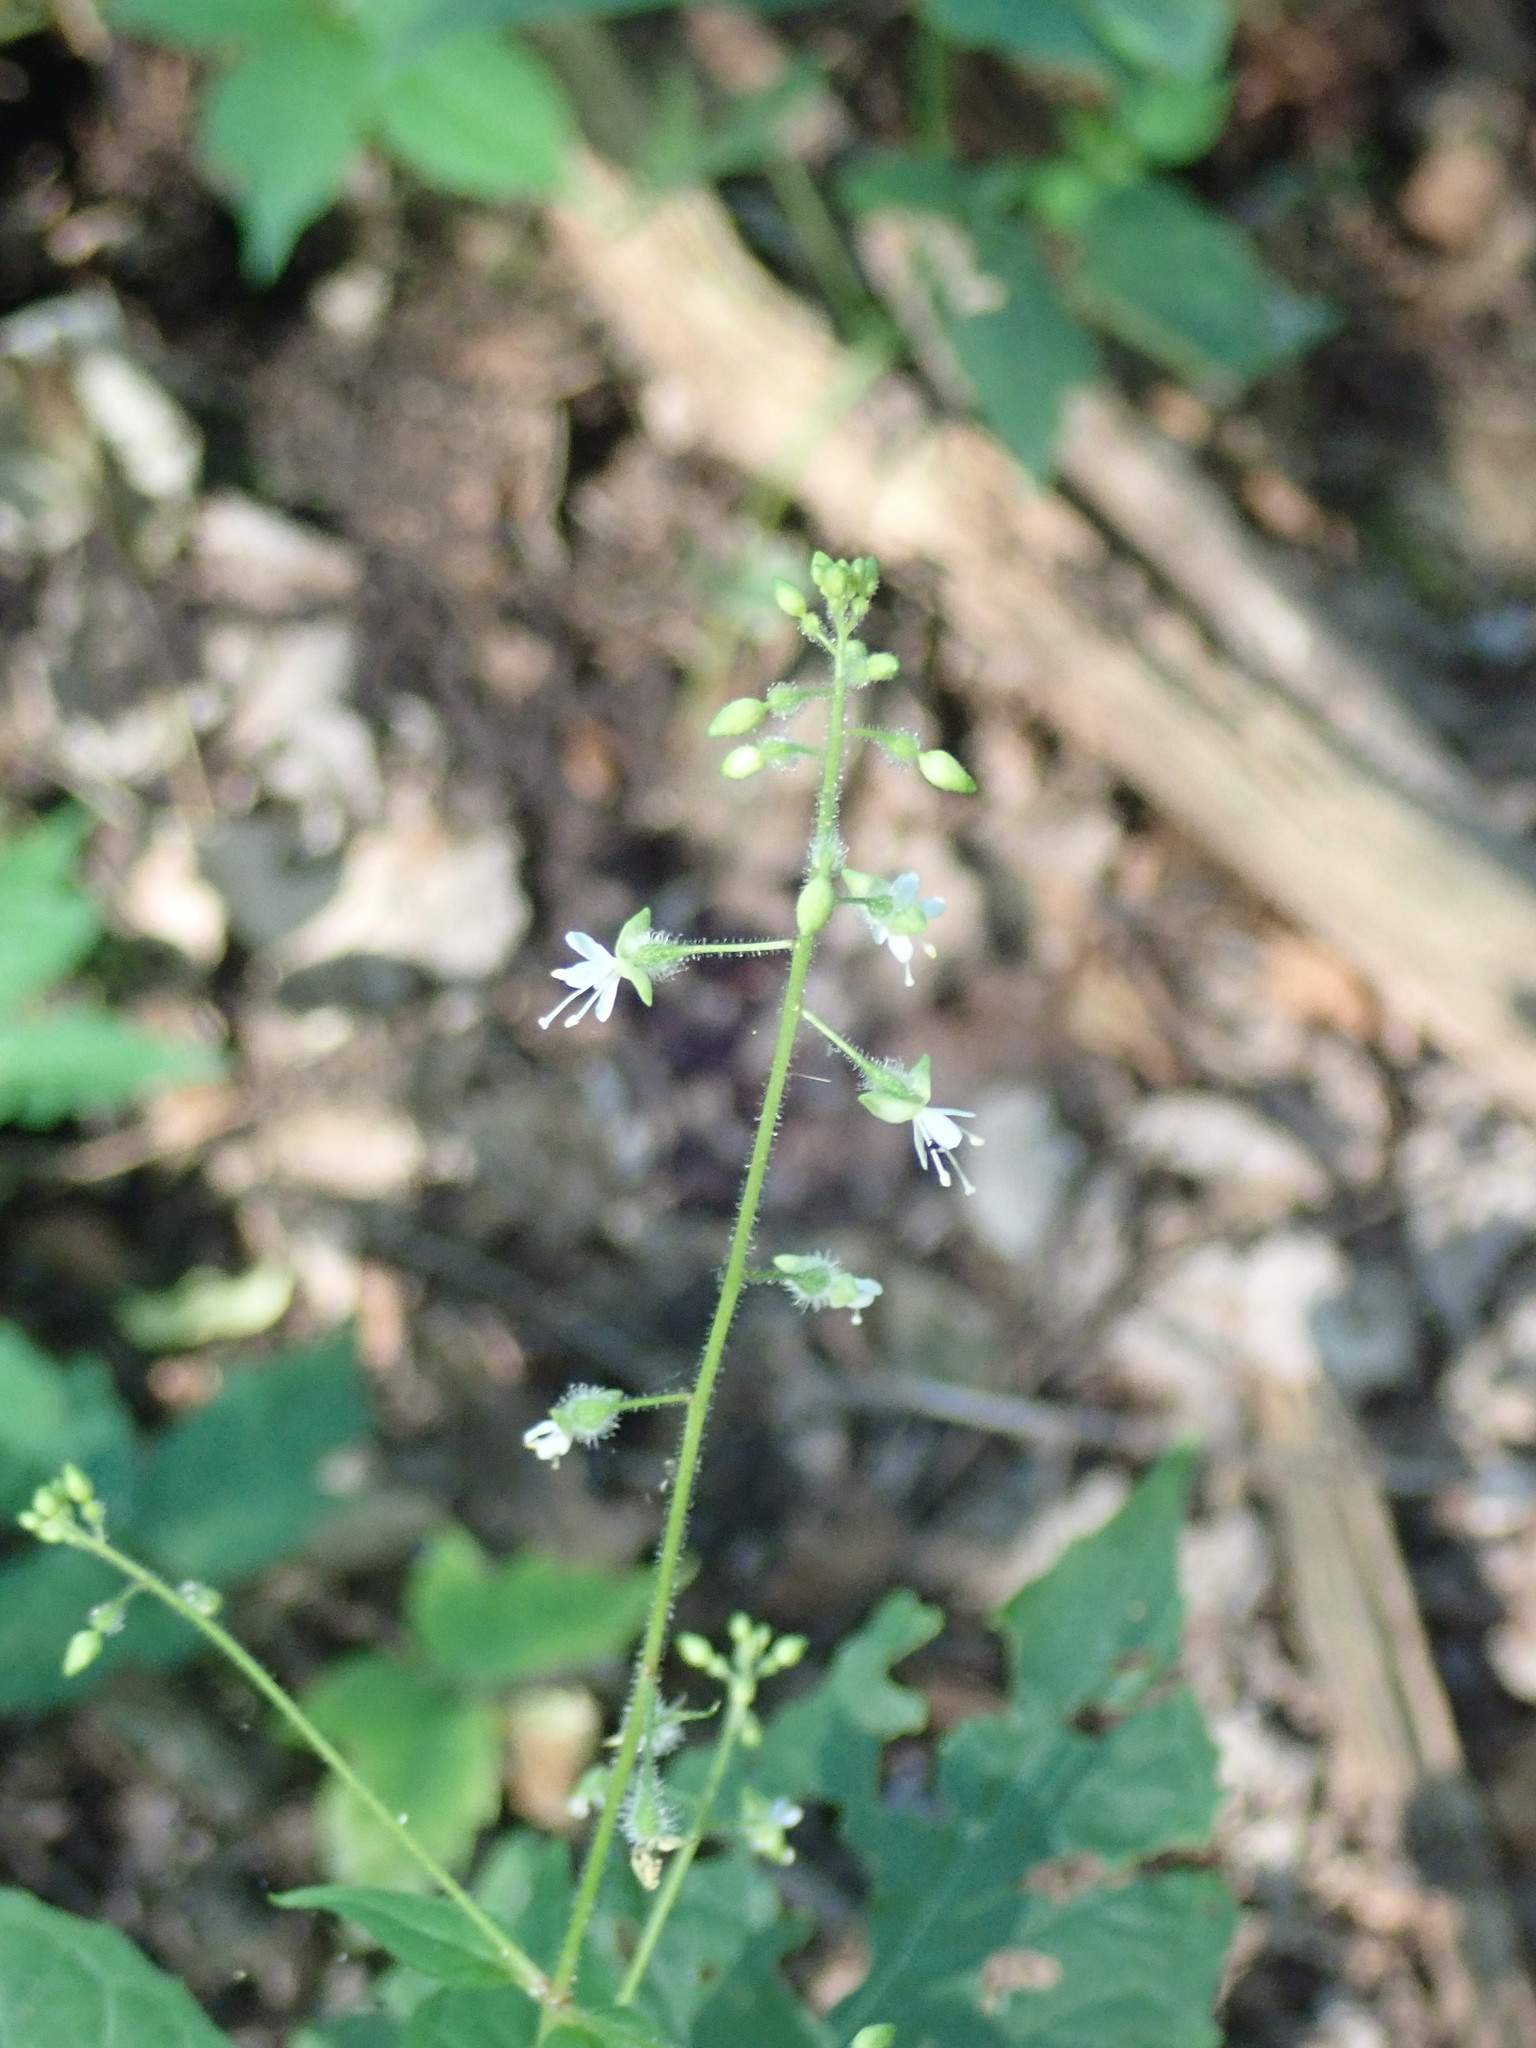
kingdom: Plantae
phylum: Tracheophyta
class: Magnoliopsida
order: Myrtales
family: Onagraceae
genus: Circaea
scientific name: Circaea canadensis
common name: Broad-leaved enchanter's nightshade
